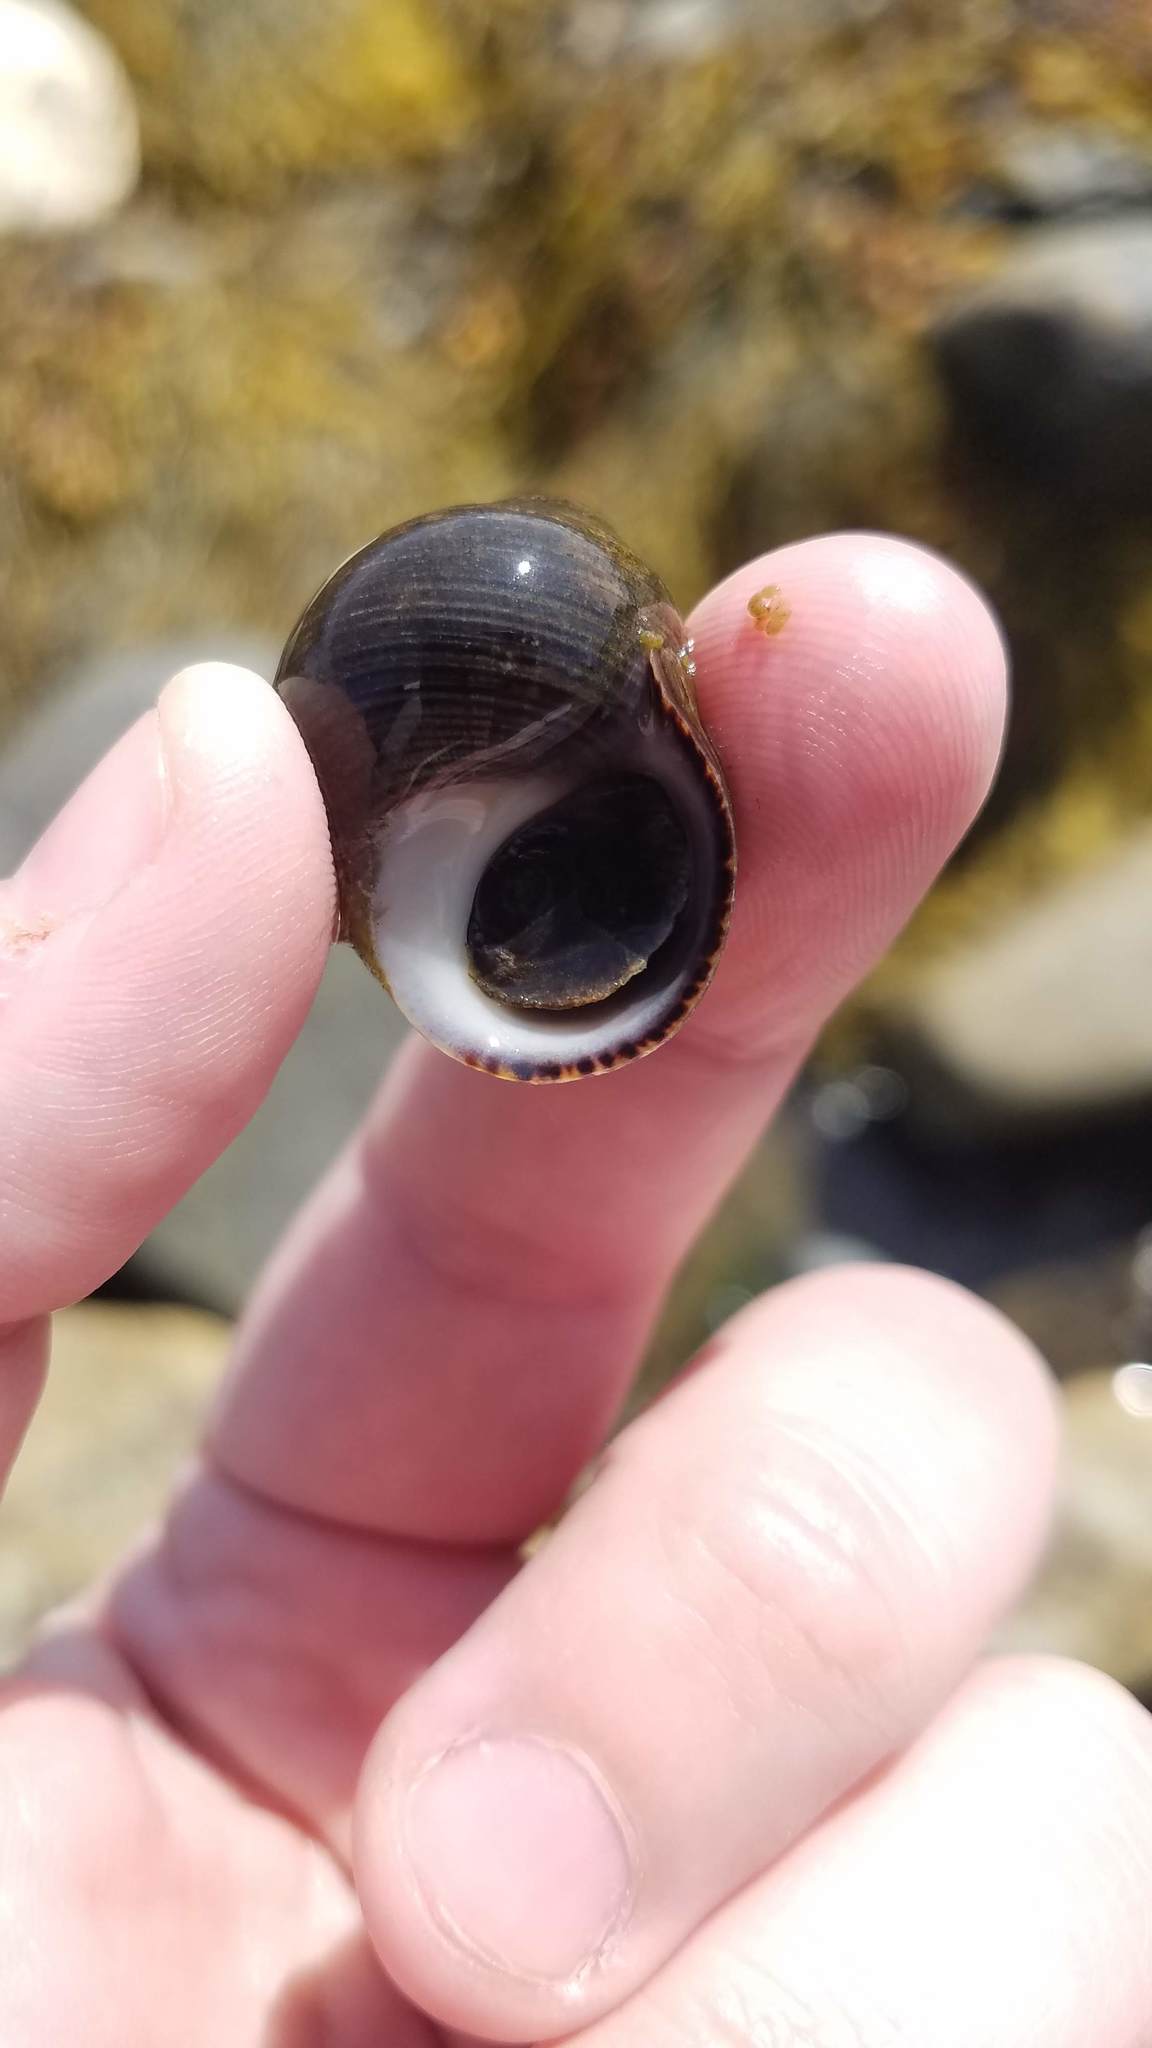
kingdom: Animalia
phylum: Mollusca
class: Gastropoda
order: Littorinimorpha
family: Littorinidae
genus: Littorina
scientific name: Littorina littorea
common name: Common periwinkle
